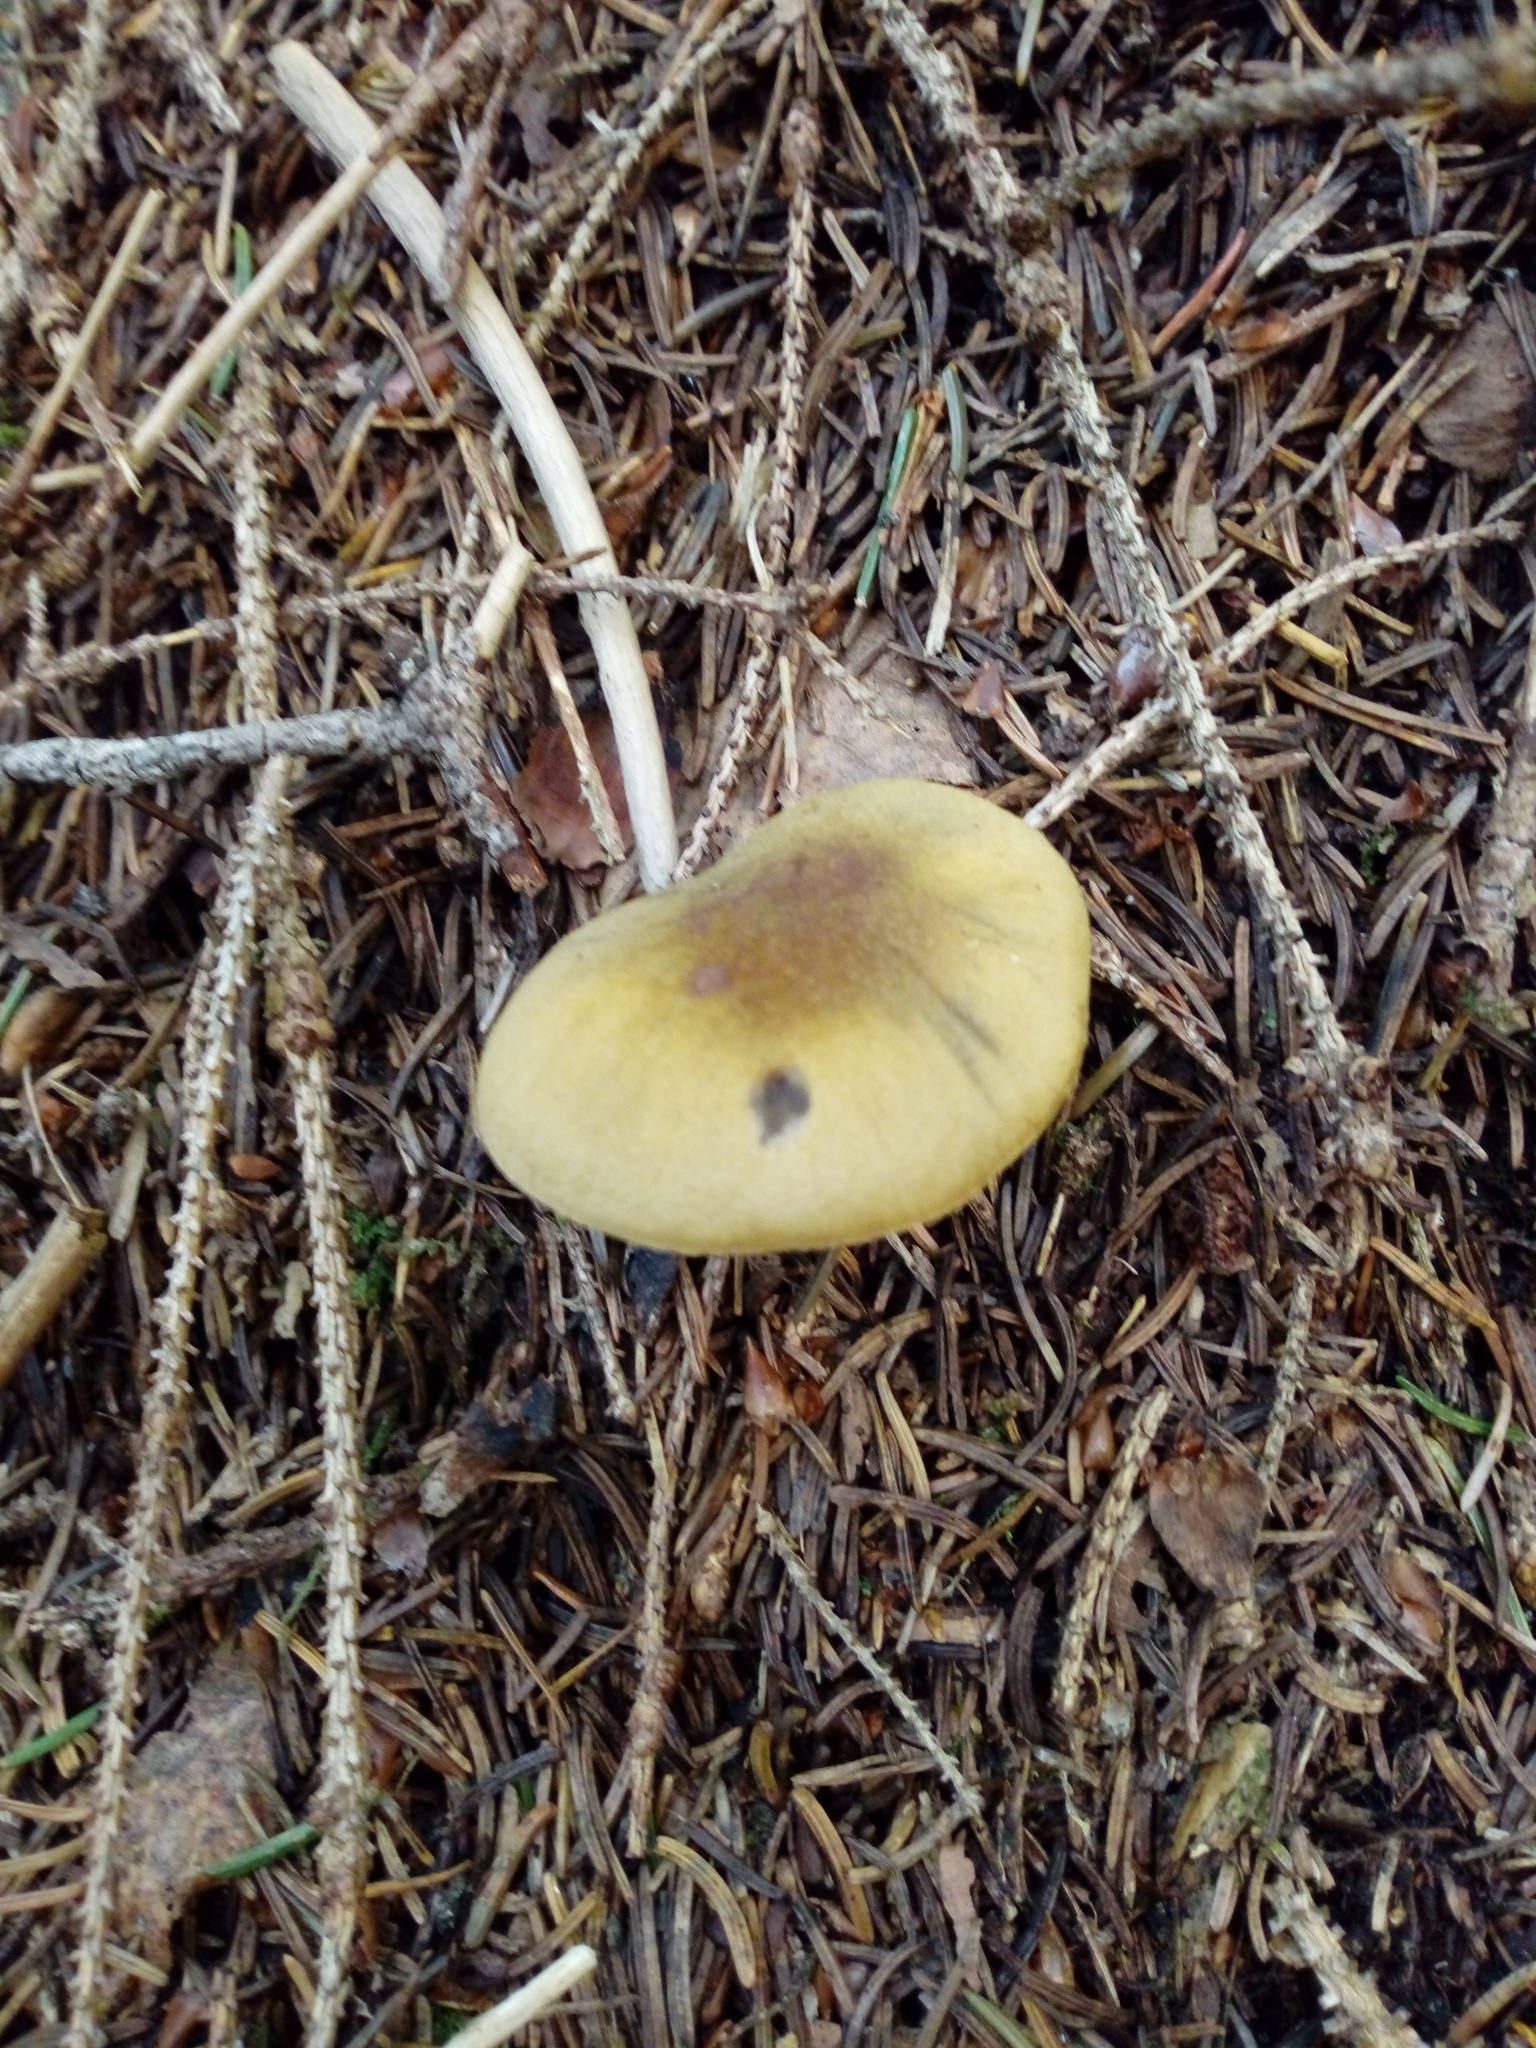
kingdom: Fungi
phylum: Basidiomycota
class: Agaricomycetes
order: Agaricales
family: Tricholomataceae
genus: Tricholoma
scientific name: Tricholoma sulphureum
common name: Stinky knight
